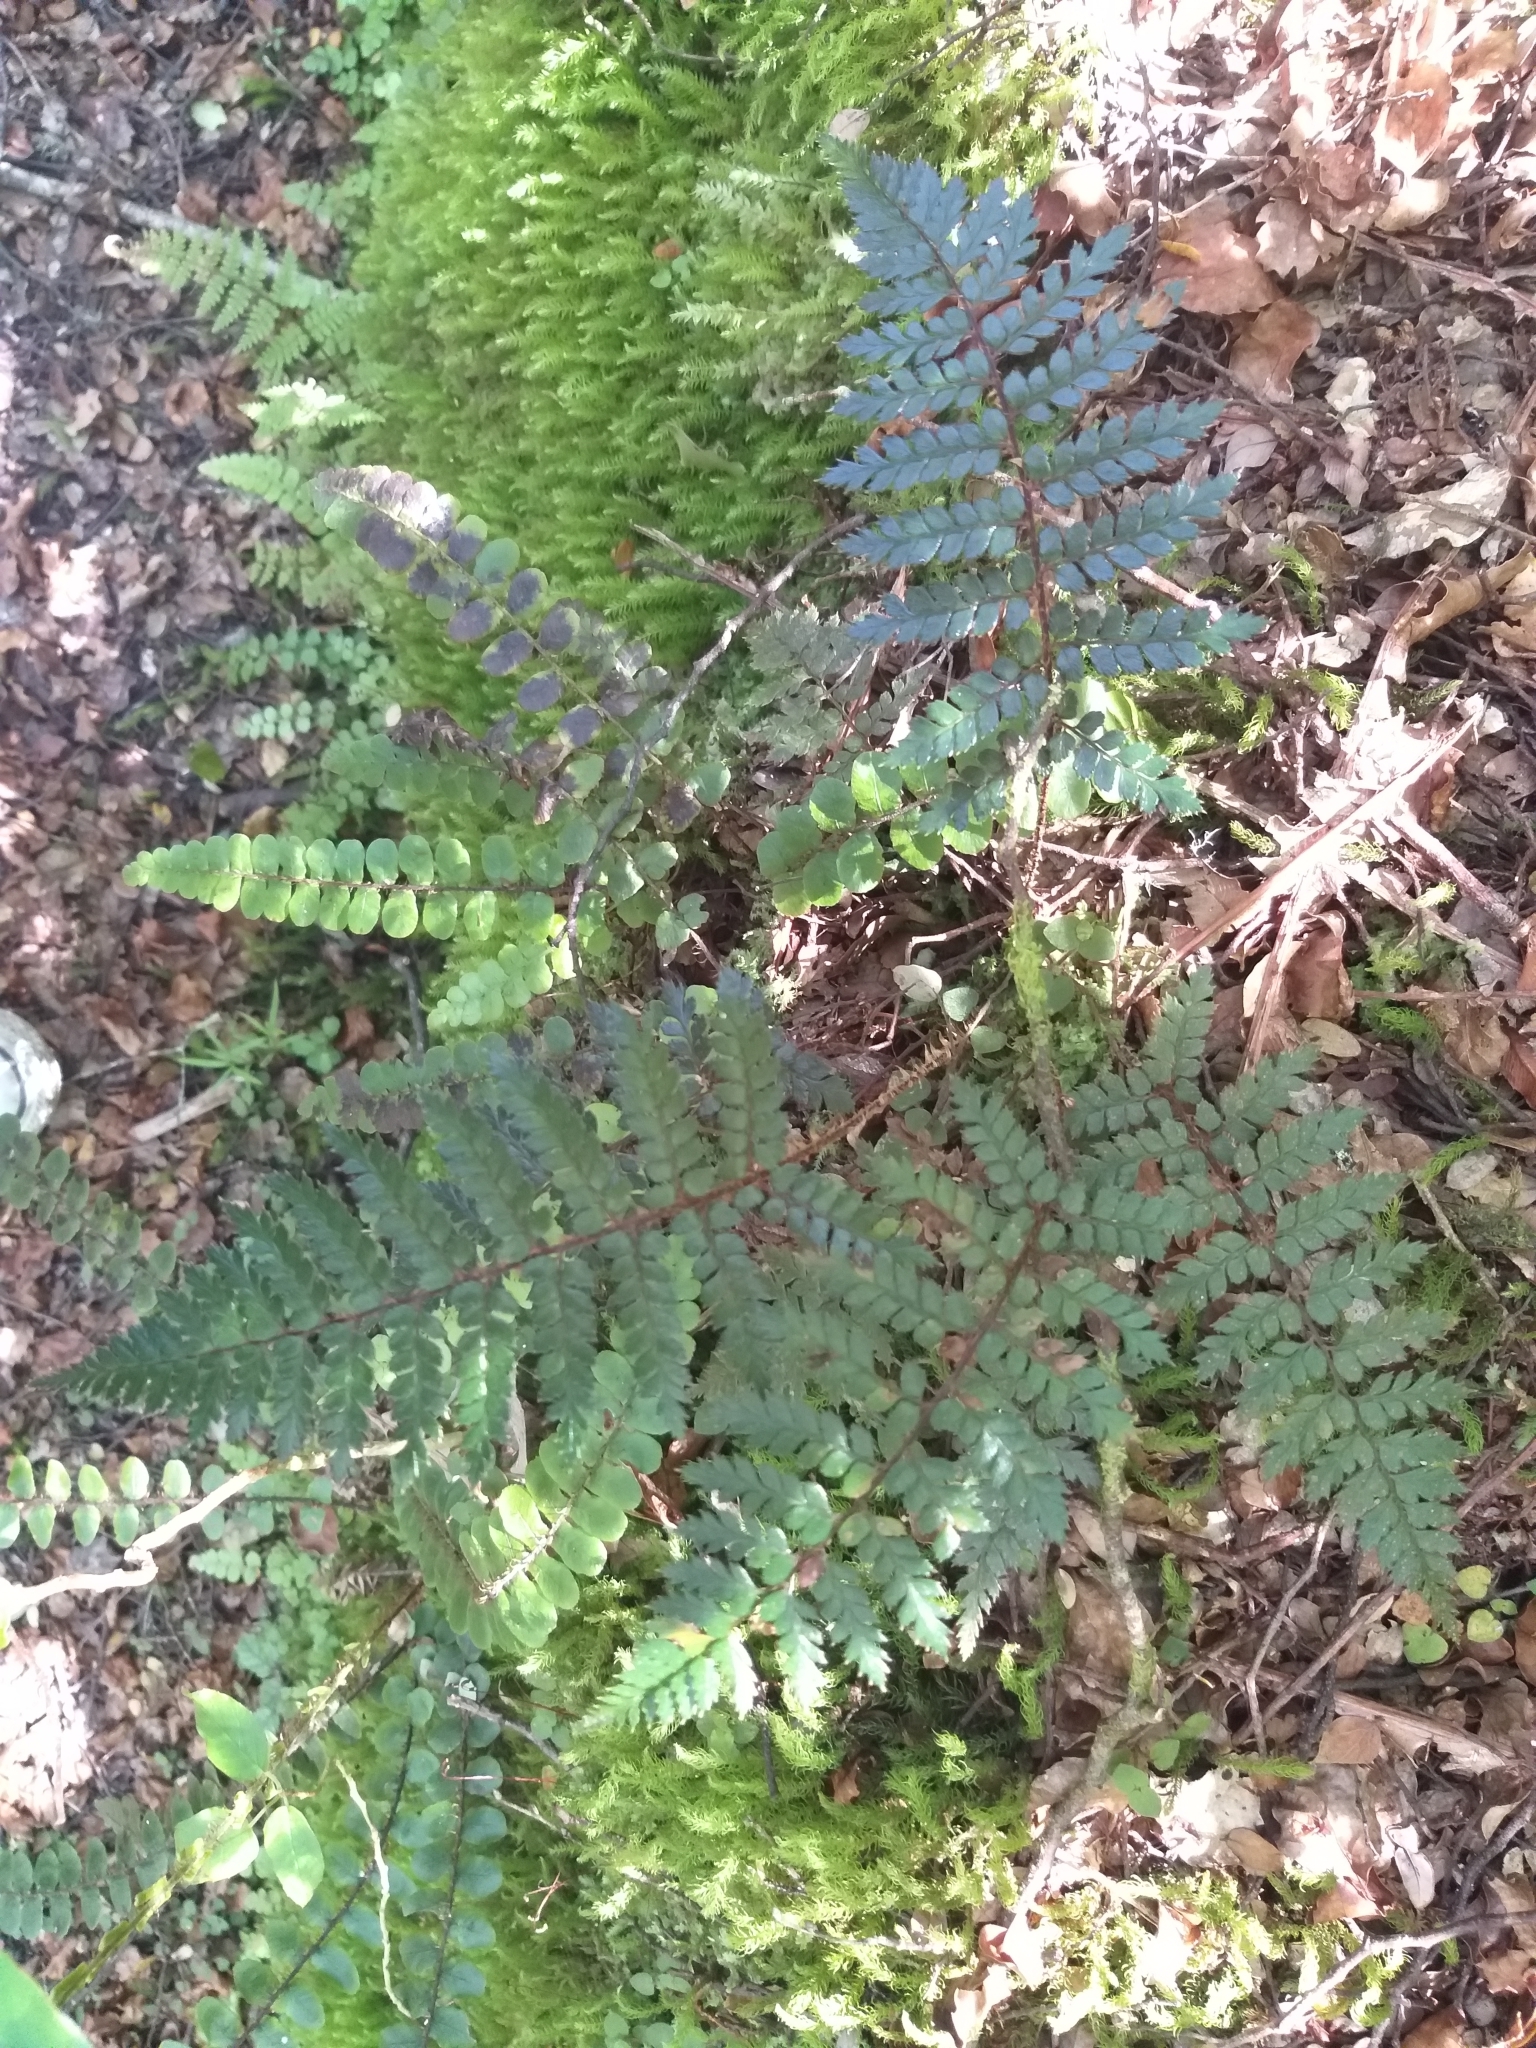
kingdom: Plantae
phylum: Tracheophyta
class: Polypodiopsida
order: Polypodiales
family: Dryopteridaceae
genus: Polystichum
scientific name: Polystichum vestitum
